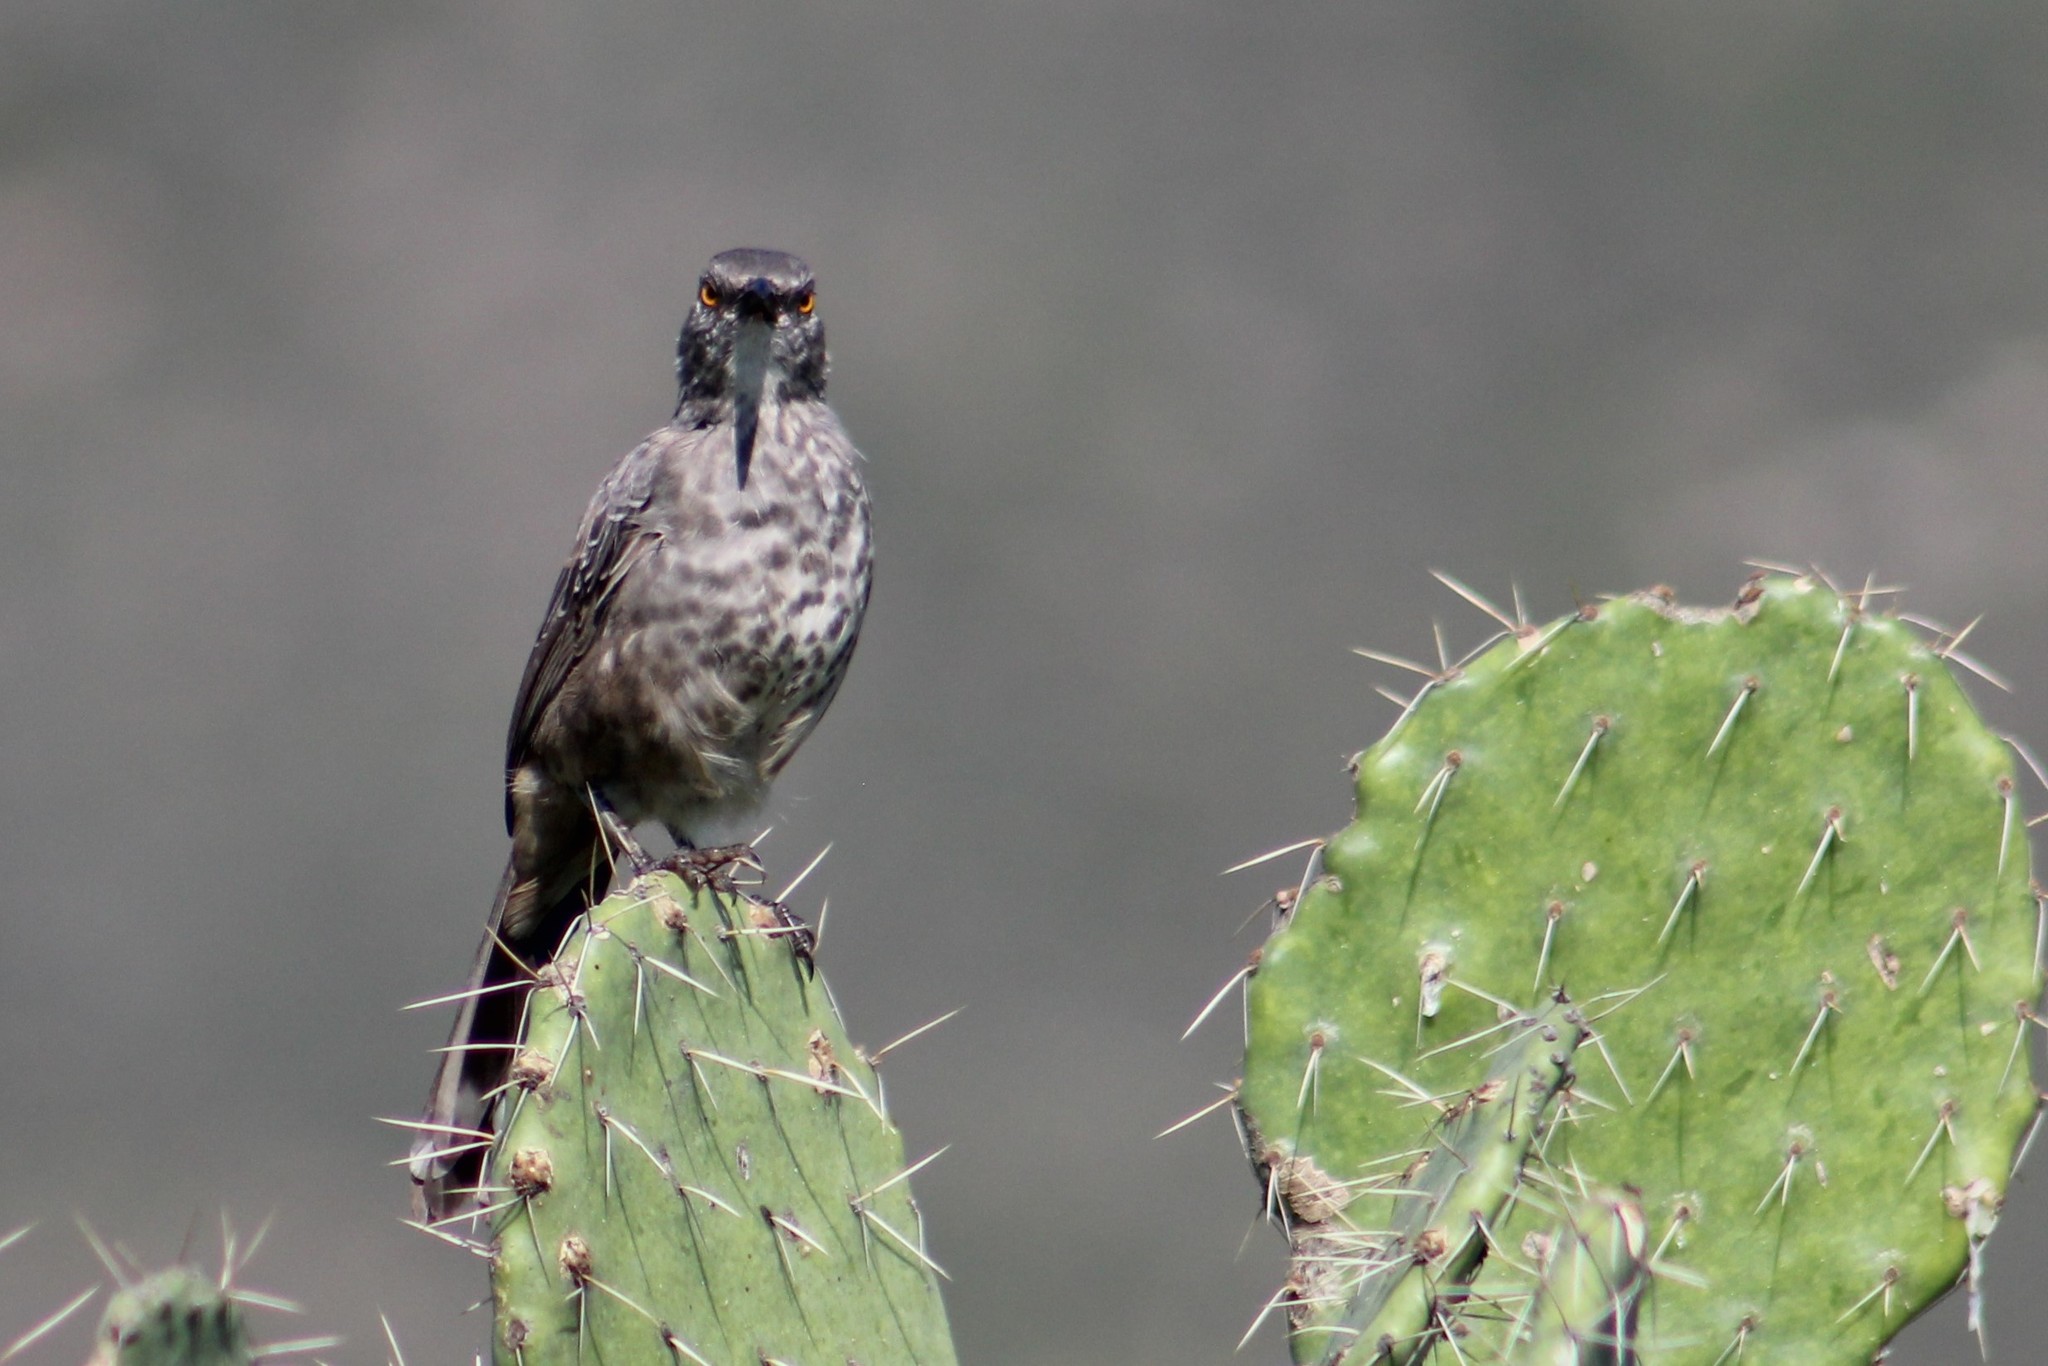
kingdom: Animalia
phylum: Chordata
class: Aves
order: Passeriformes
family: Mimidae
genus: Toxostoma
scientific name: Toxostoma curvirostre
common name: Curve-billed thrasher
